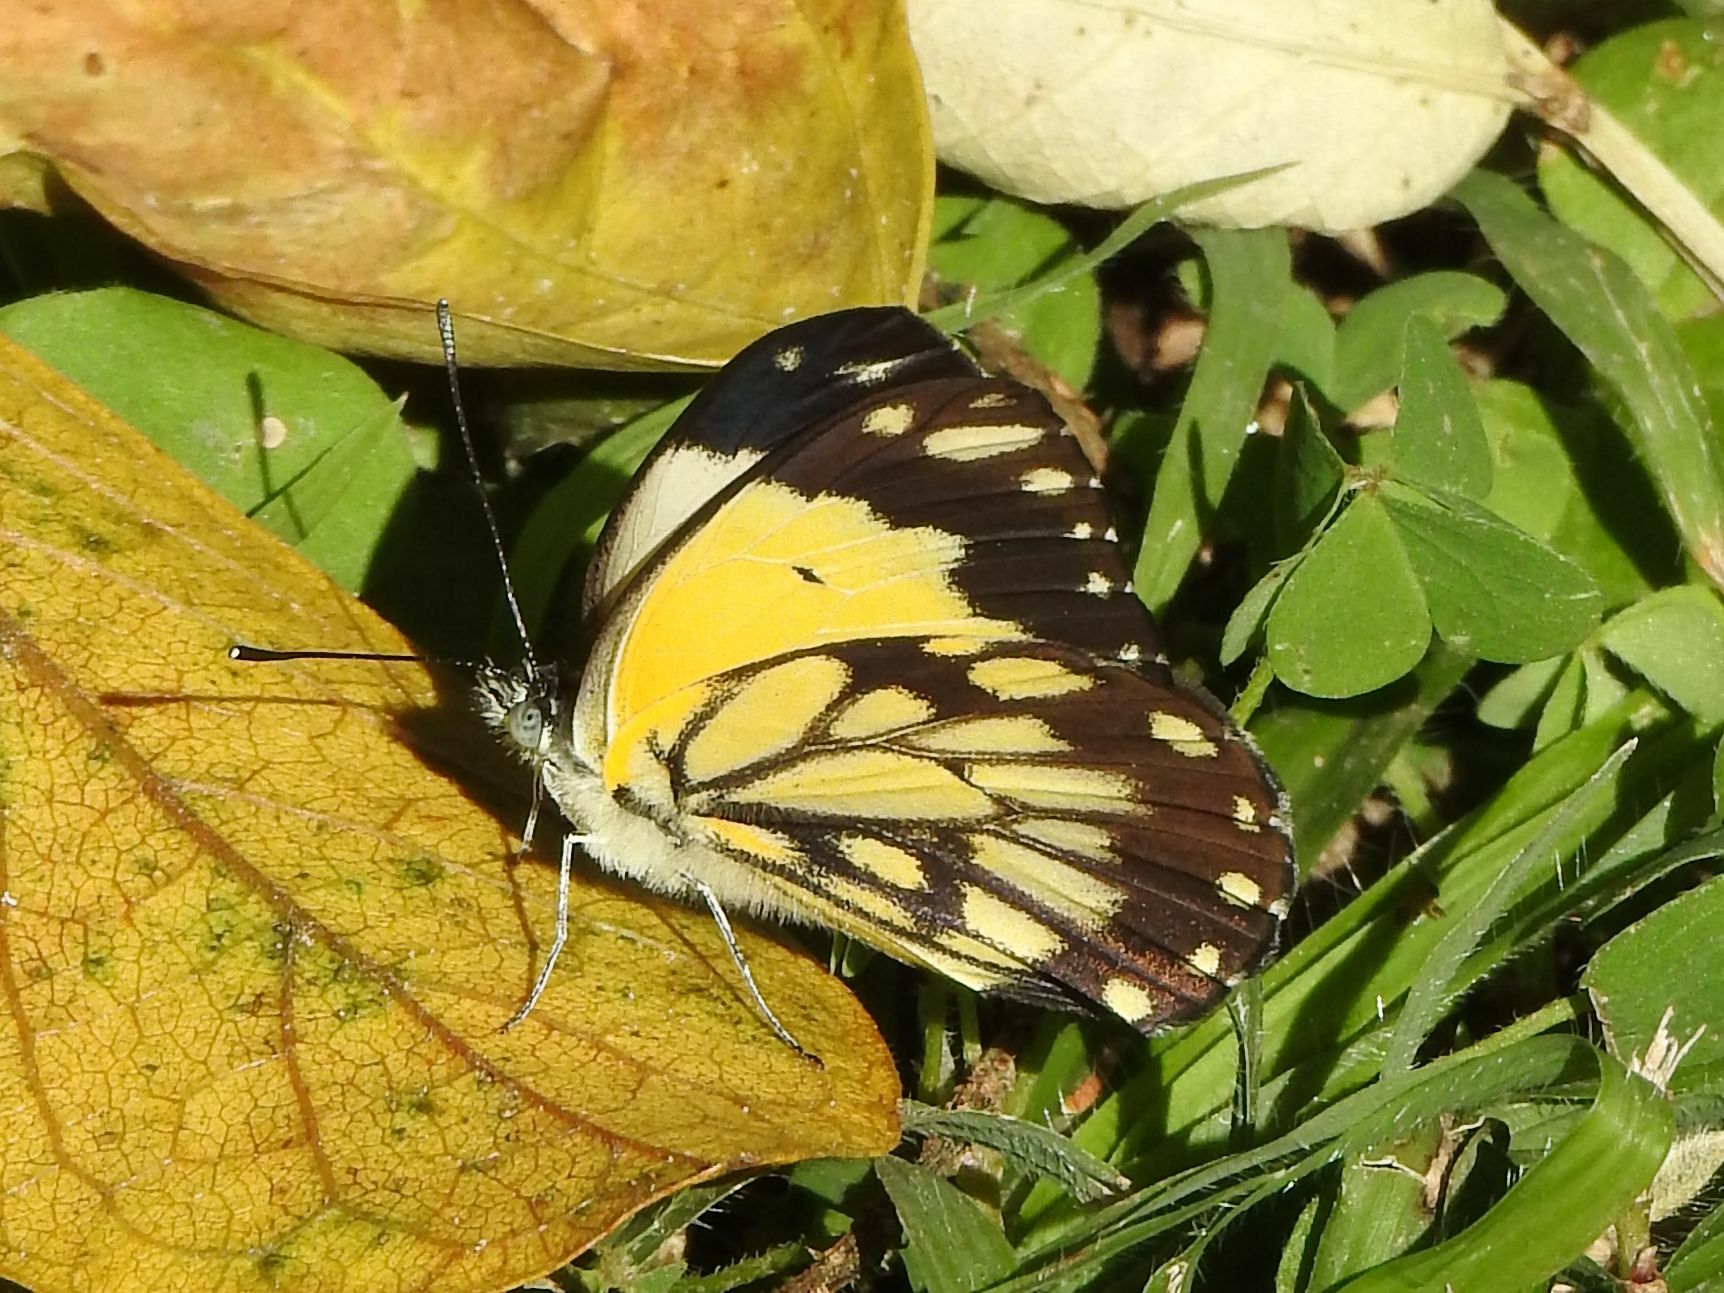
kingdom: Animalia
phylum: Arthropoda
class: Insecta
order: Lepidoptera
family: Pieridae
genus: Belenois
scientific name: Belenois creona
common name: African caper white
